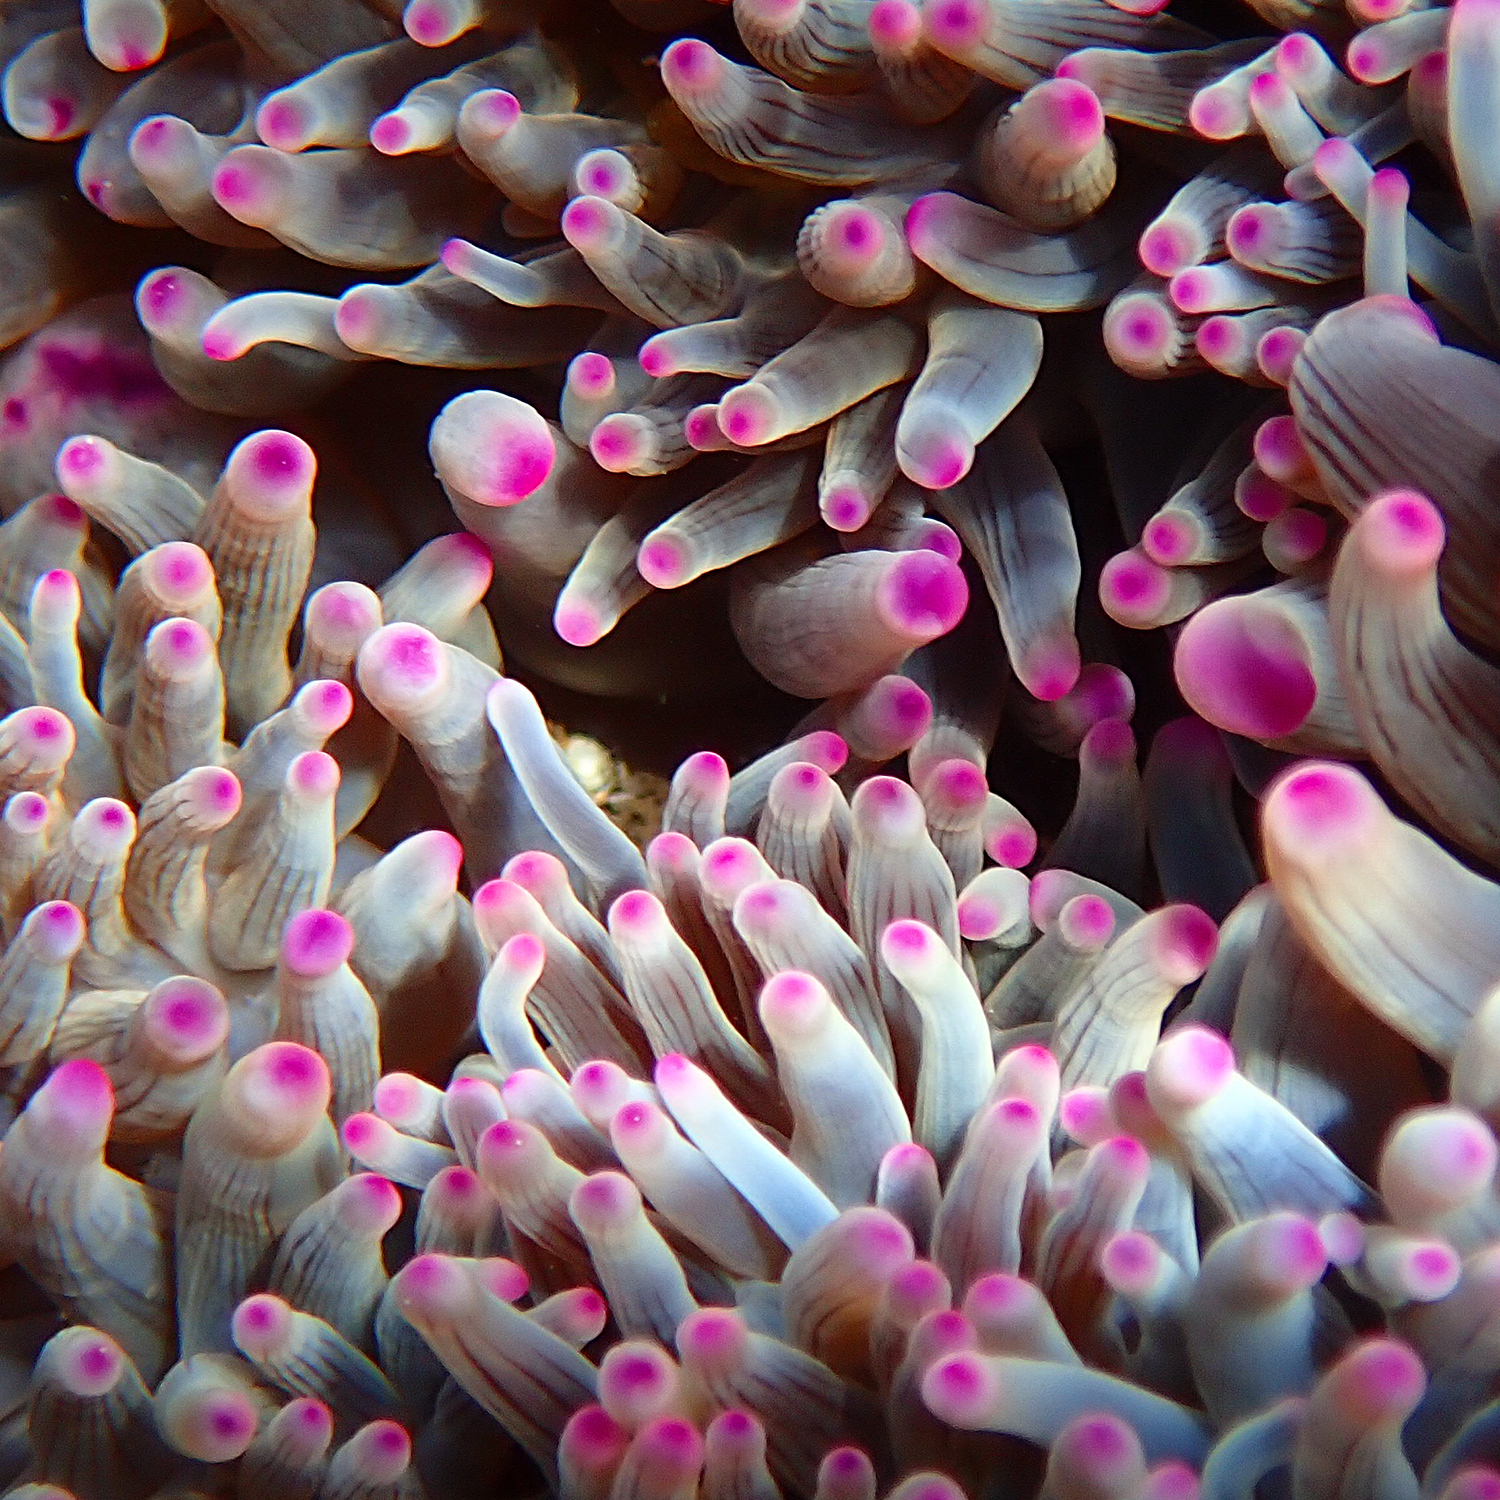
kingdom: Animalia
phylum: Cnidaria
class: Anthozoa
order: Actiniaria
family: Actiniidae
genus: Entacmaea
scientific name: Entacmaea quadricolor
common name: Bulb tentacle sea anemone
